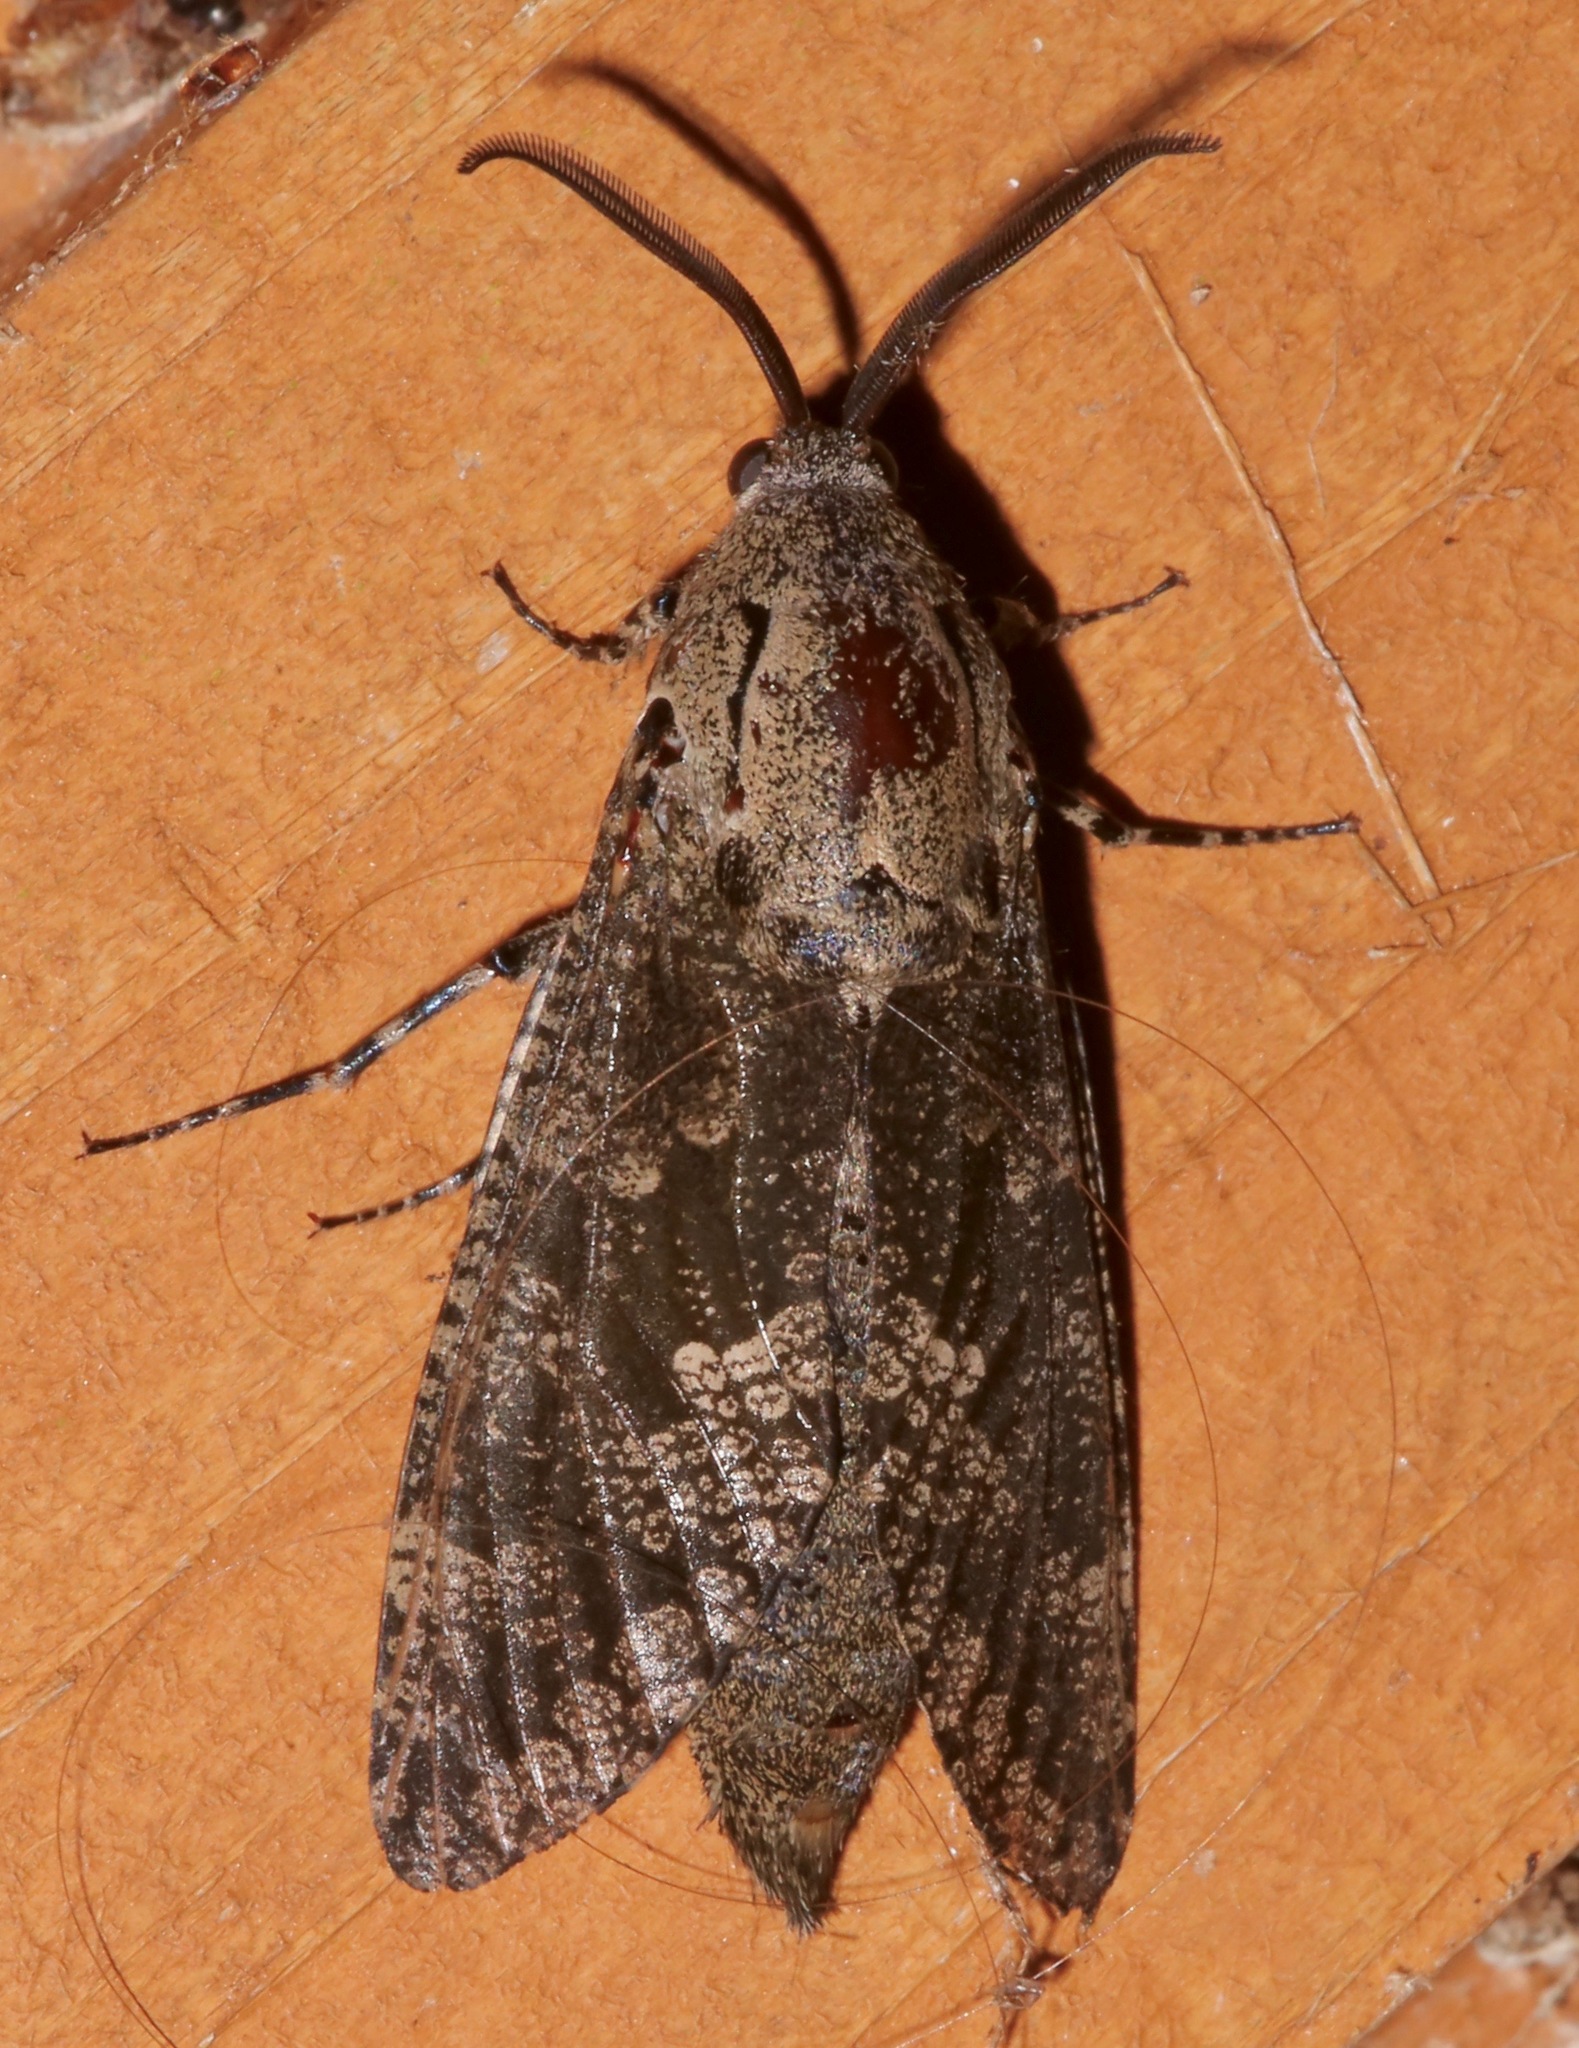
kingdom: Animalia
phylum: Arthropoda
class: Insecta
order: Lepidoptera
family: Cossidae
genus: Prionoxystus
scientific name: Prionoxystus robiniae
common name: Carpenterworm
